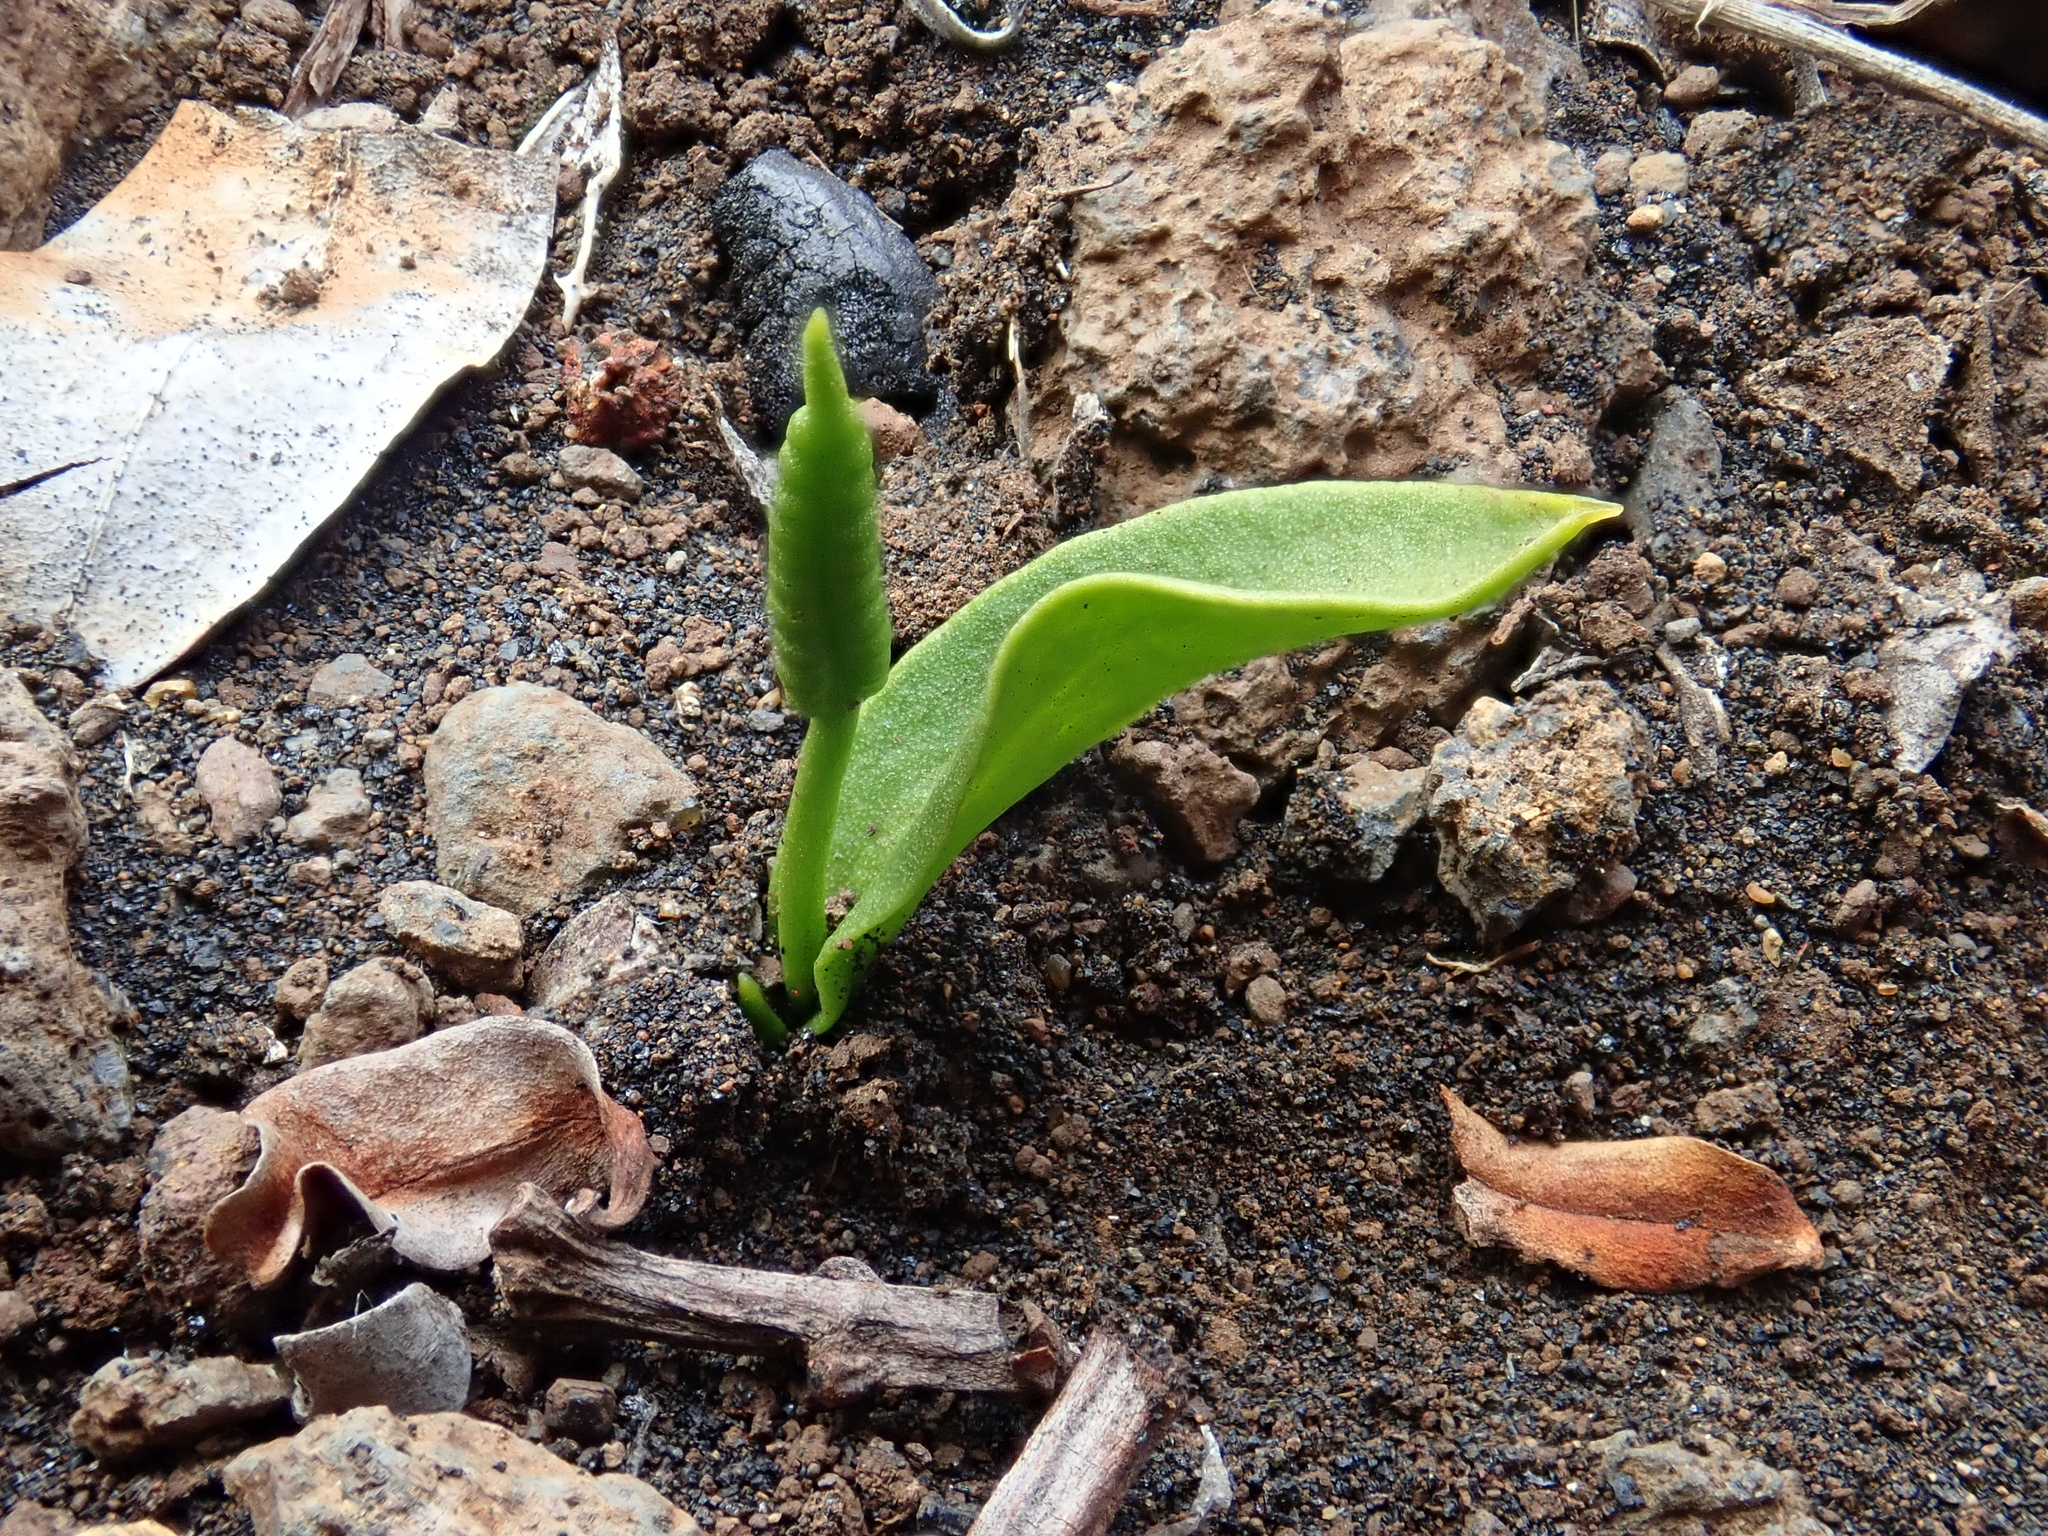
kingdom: Plantae
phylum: Tracheophyta
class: Polypodiopsida
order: Ophioglossales
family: Ophioglossaceae
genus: Ophioglossum
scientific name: Ophioglossum polyphyllum
